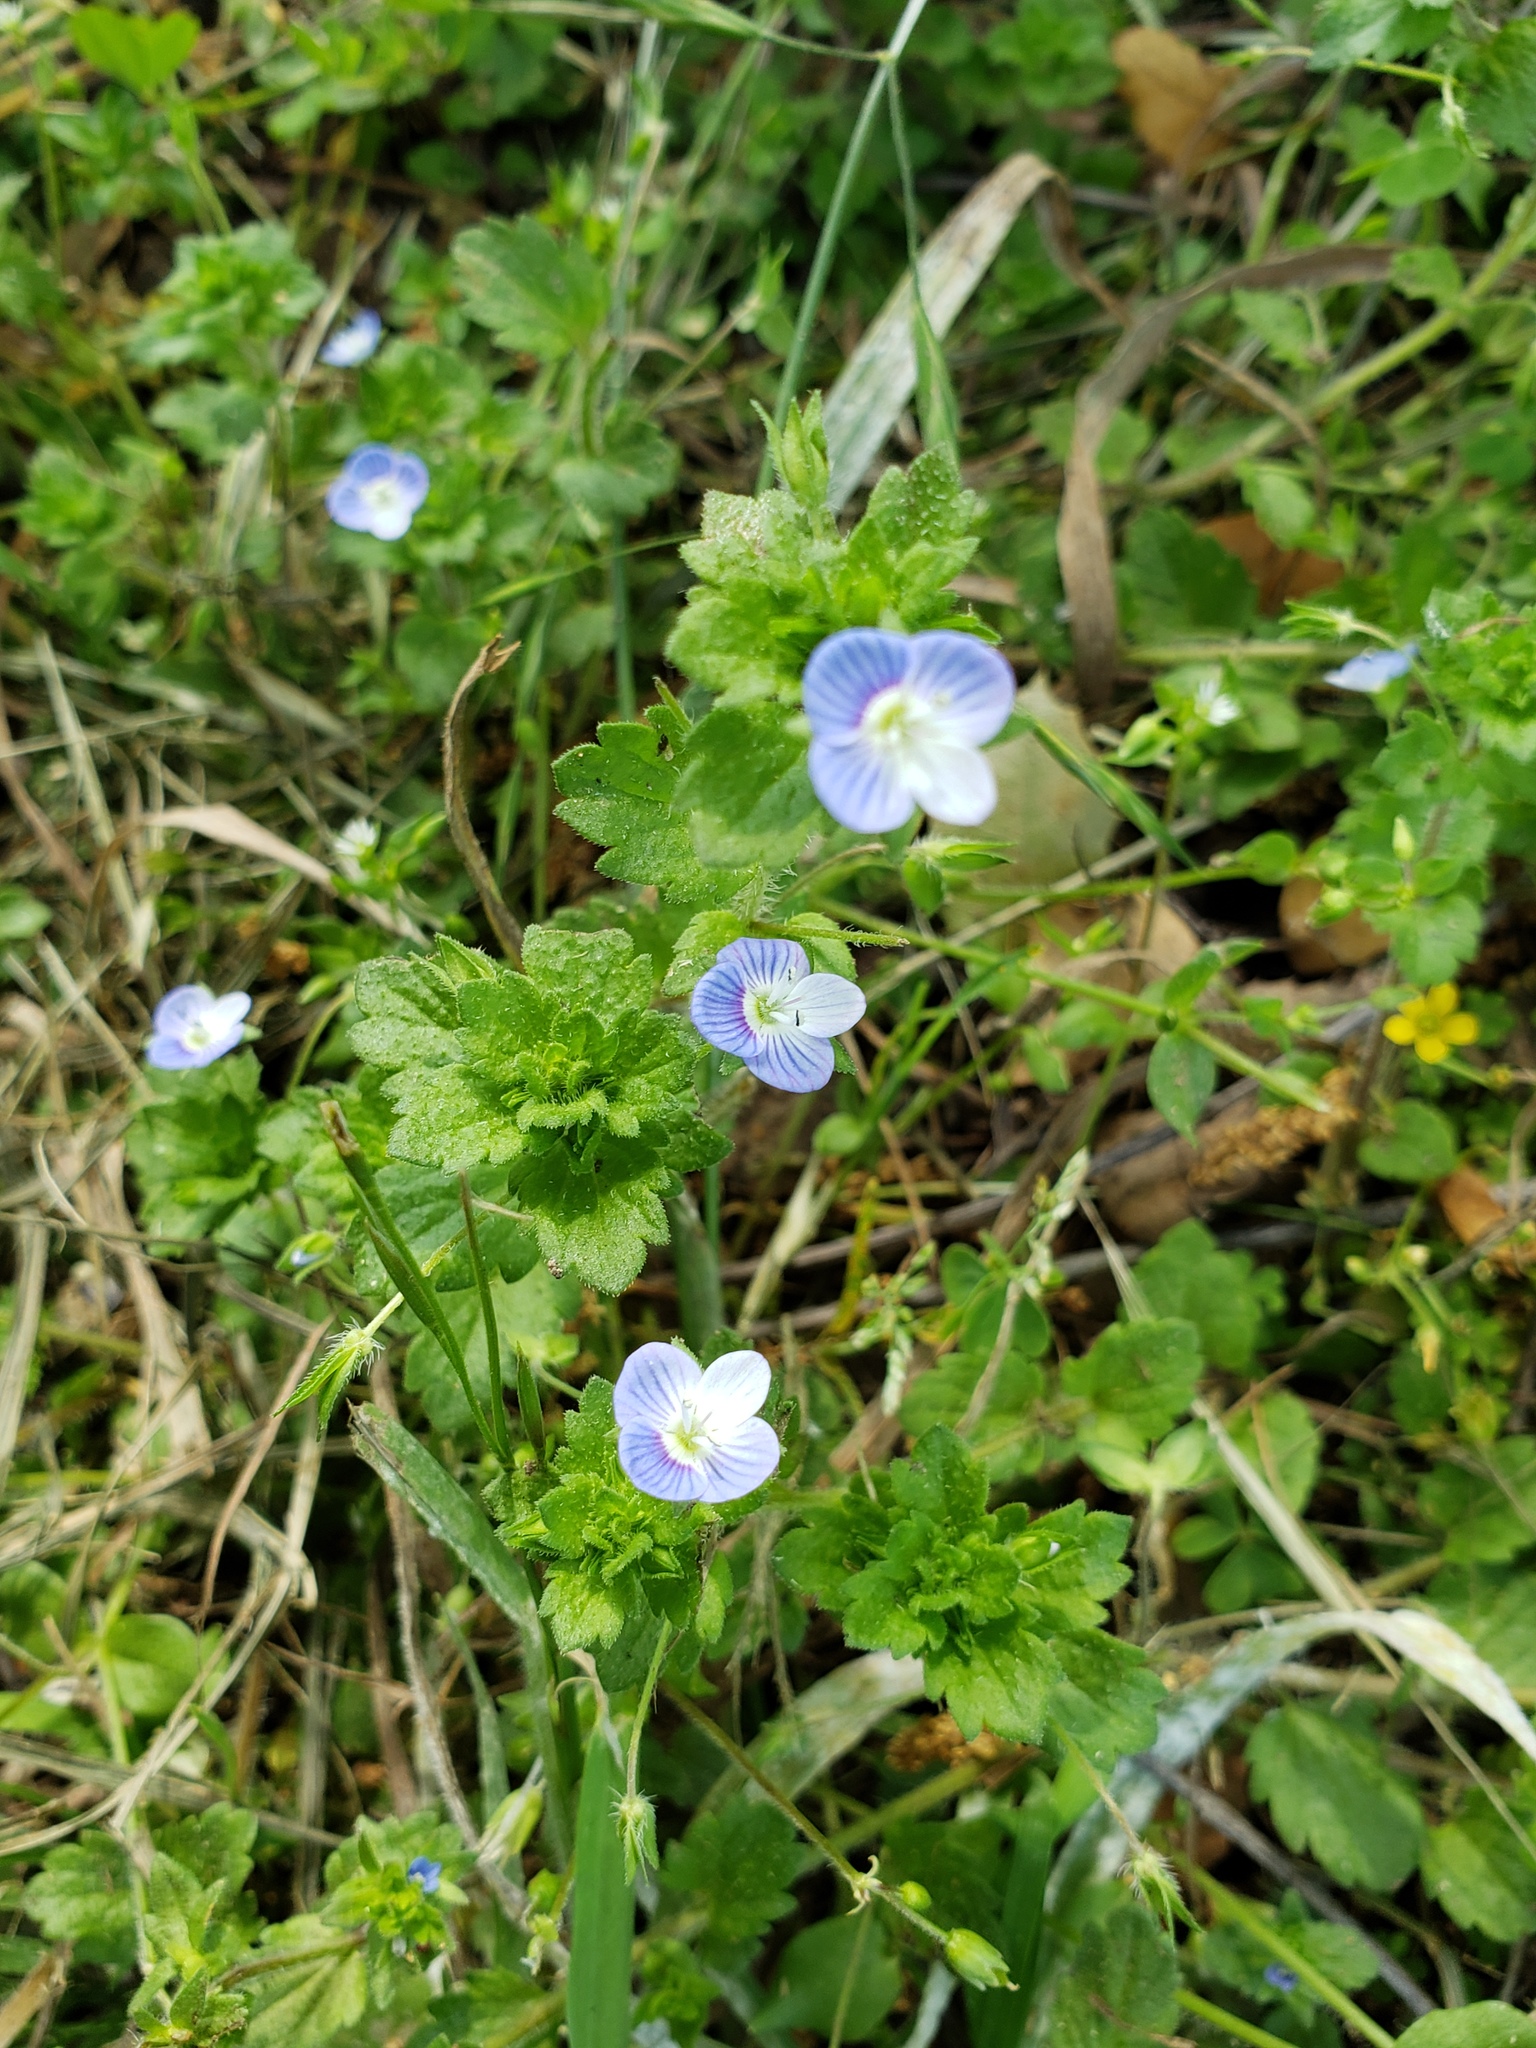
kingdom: Plantae
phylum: Tracheophyta
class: Magnoliopsida
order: Lamiales
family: Plantaginaceae
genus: Veronica
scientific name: Veronica persica
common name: Common field-speedwell
